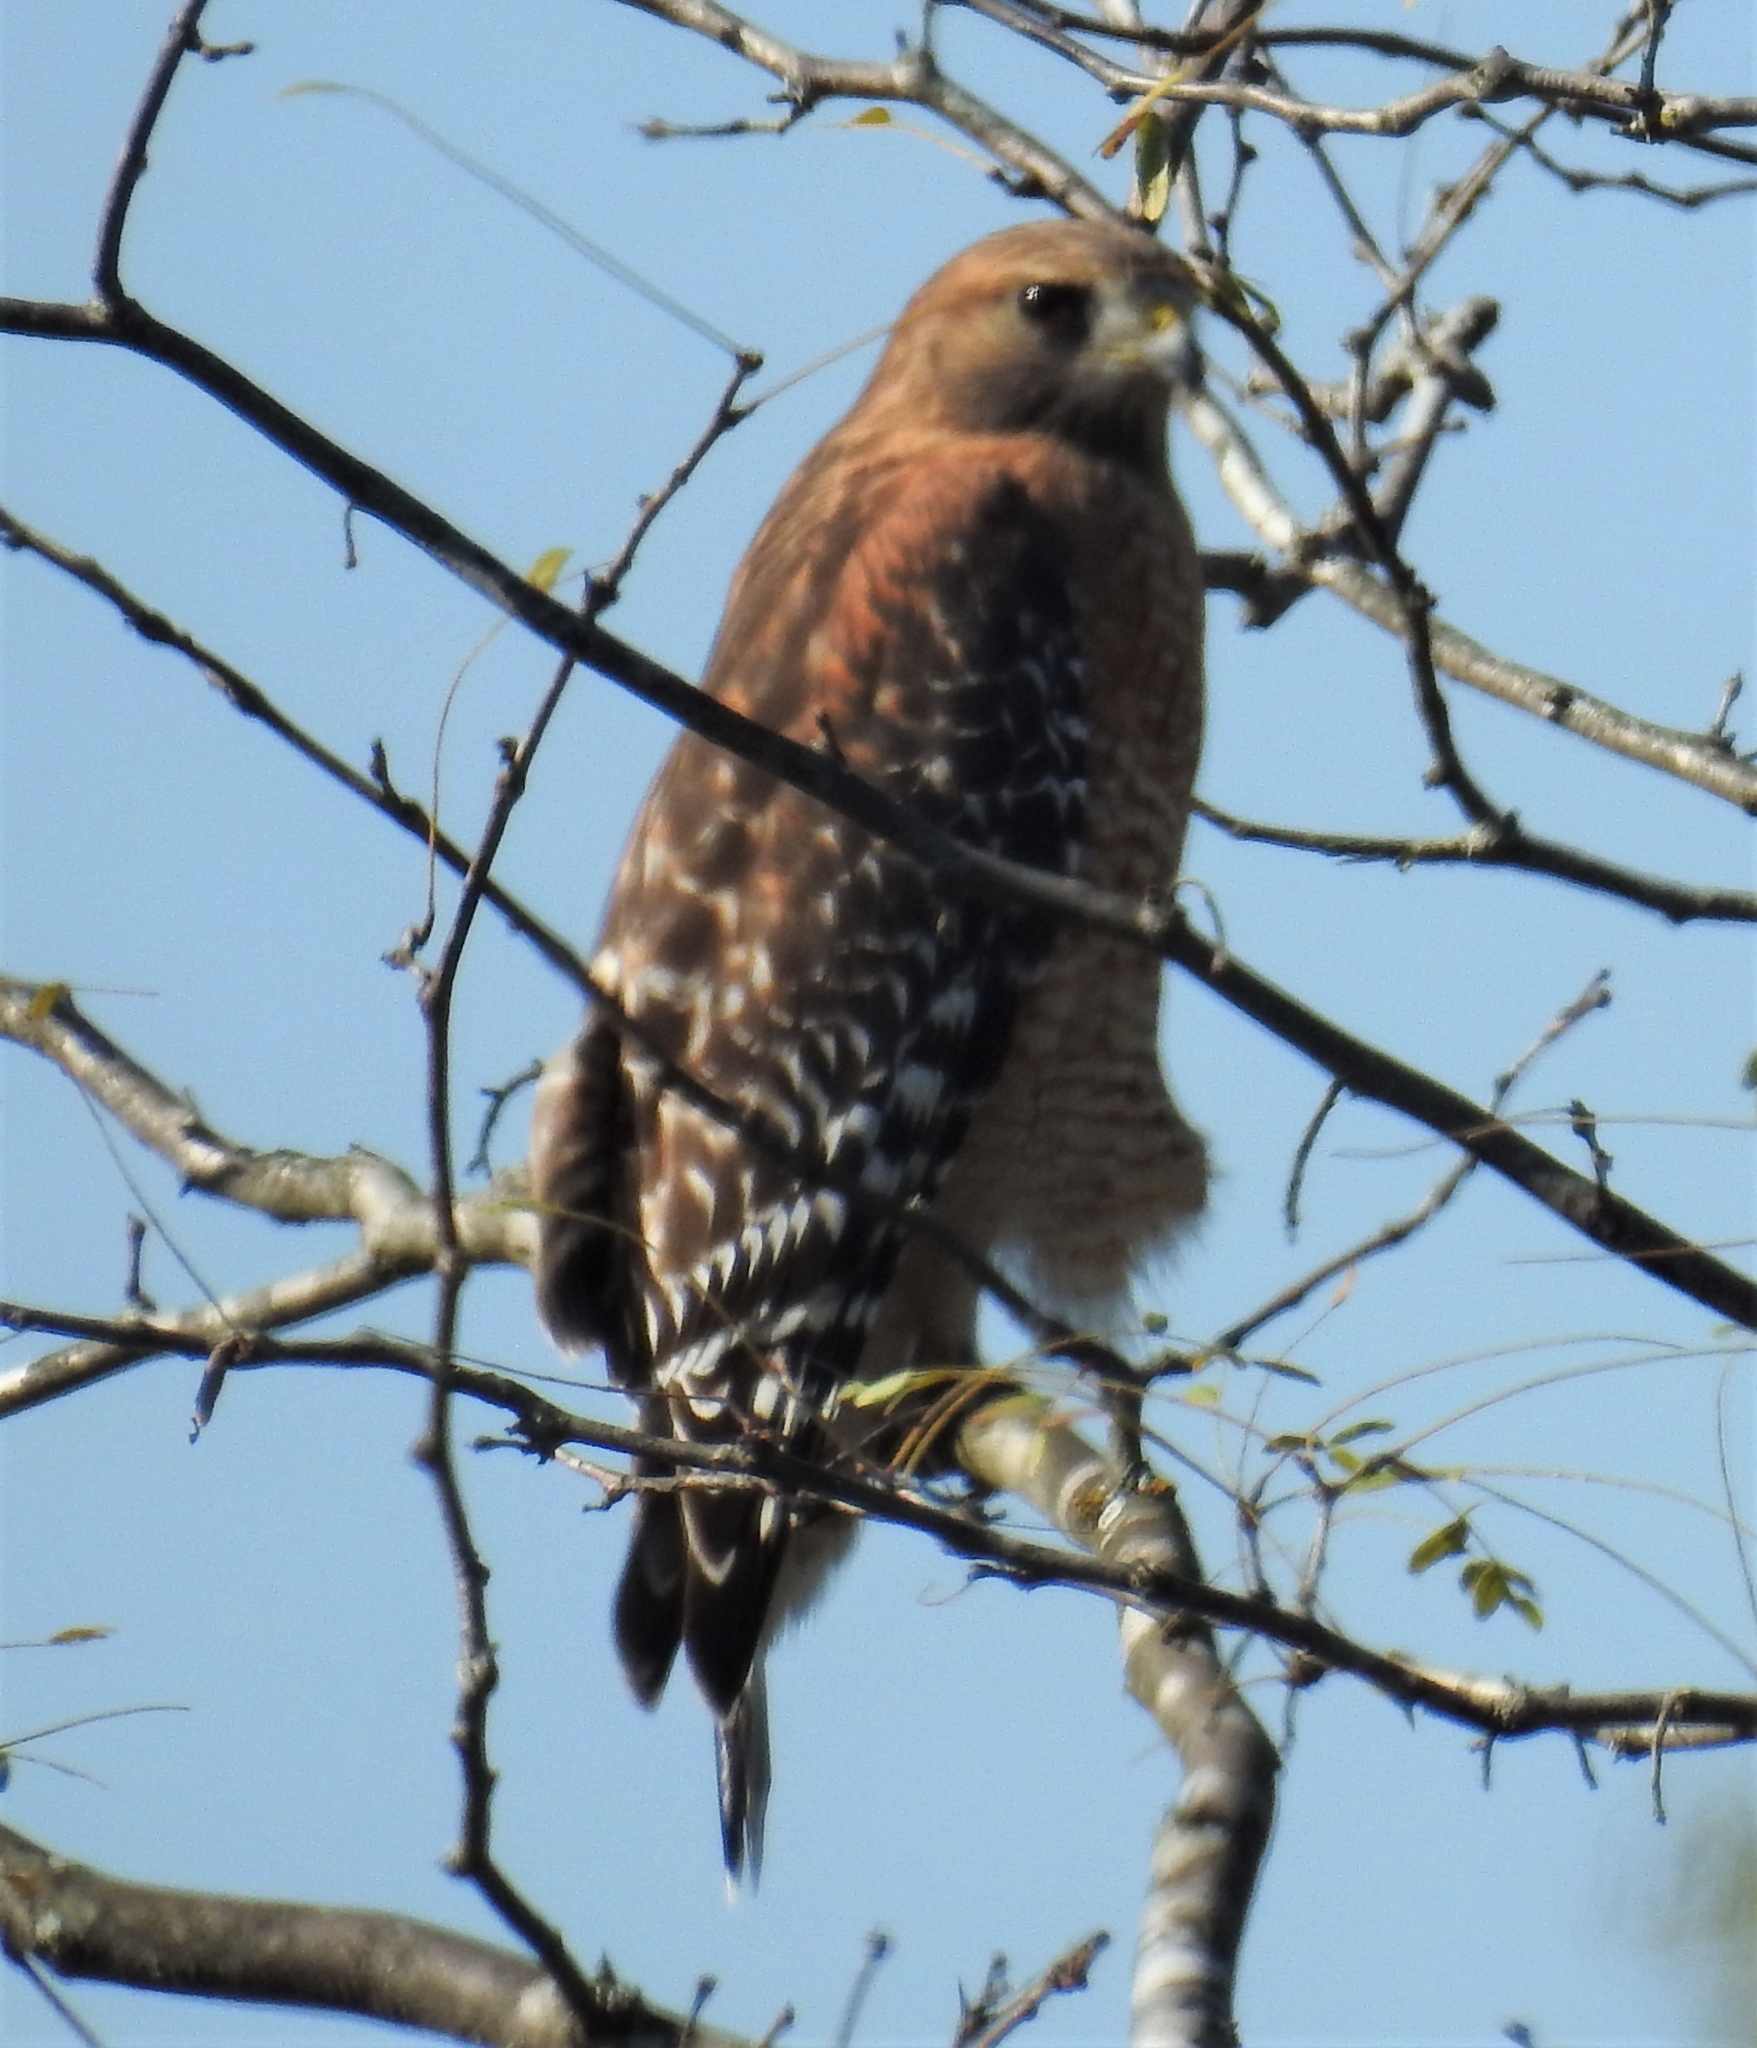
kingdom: Animalia
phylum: Chordata
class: Aves
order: Accipitriformes
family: Accipitridae
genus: Buteo
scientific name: Buteo lineatus
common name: Red-shouldered hawk
